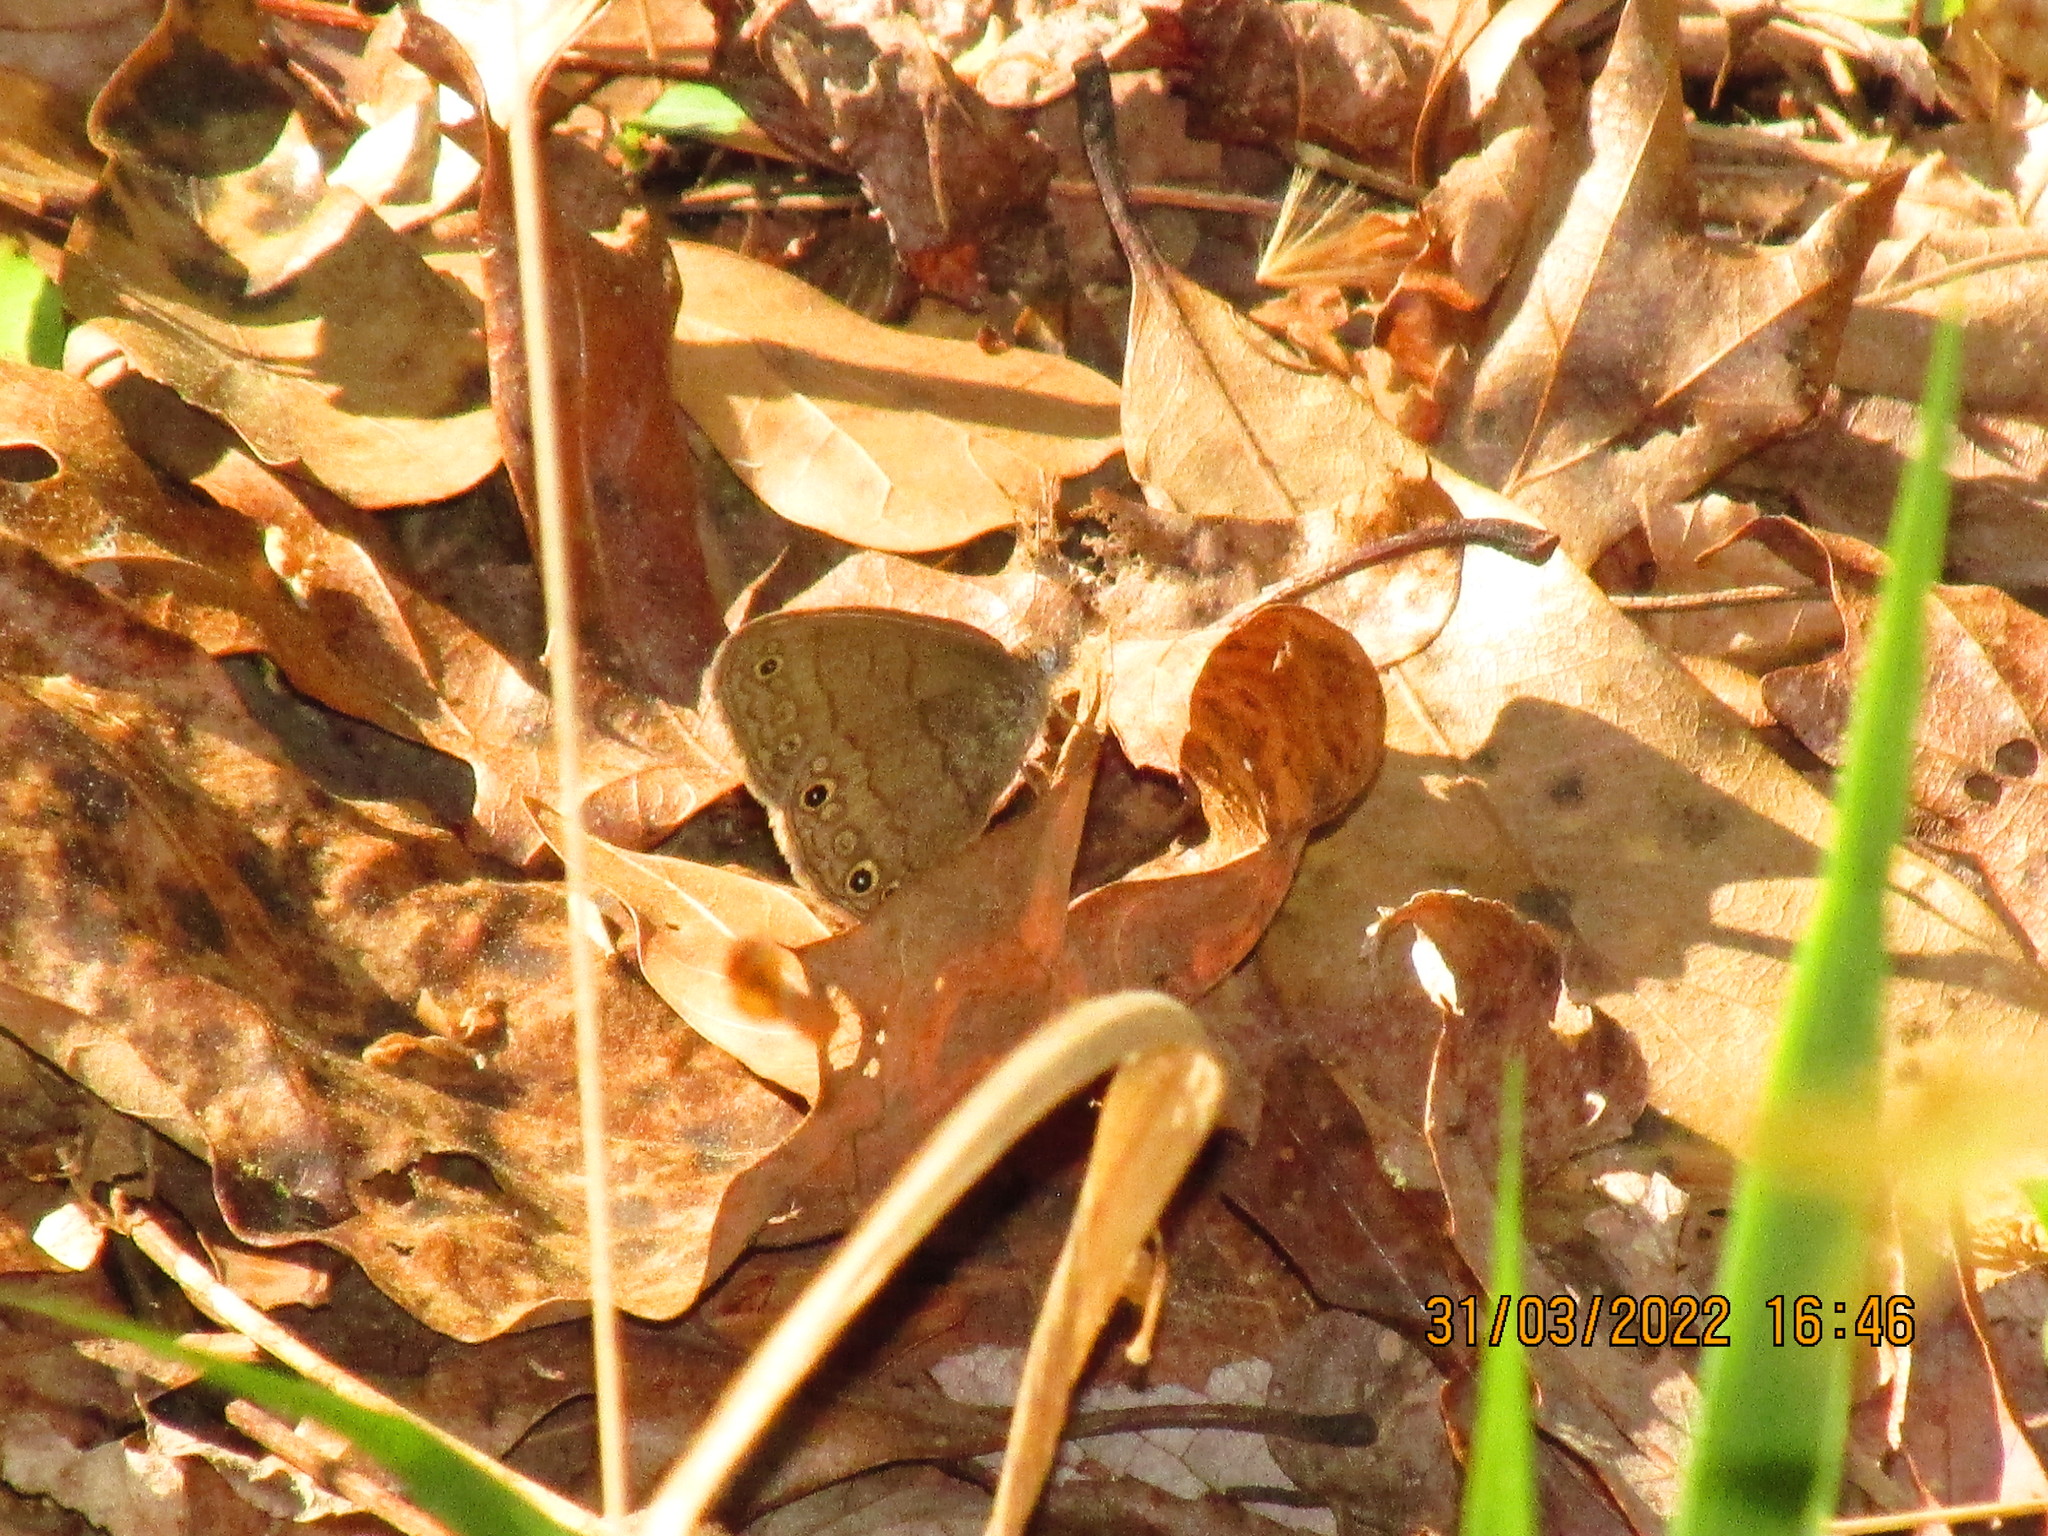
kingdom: Animalia
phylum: Arthropoda
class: Insecta
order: Lepidoptera
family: Nymphalidae
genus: Hermeuptychia
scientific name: Hermeuptychia hermes
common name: Hermes satyr
